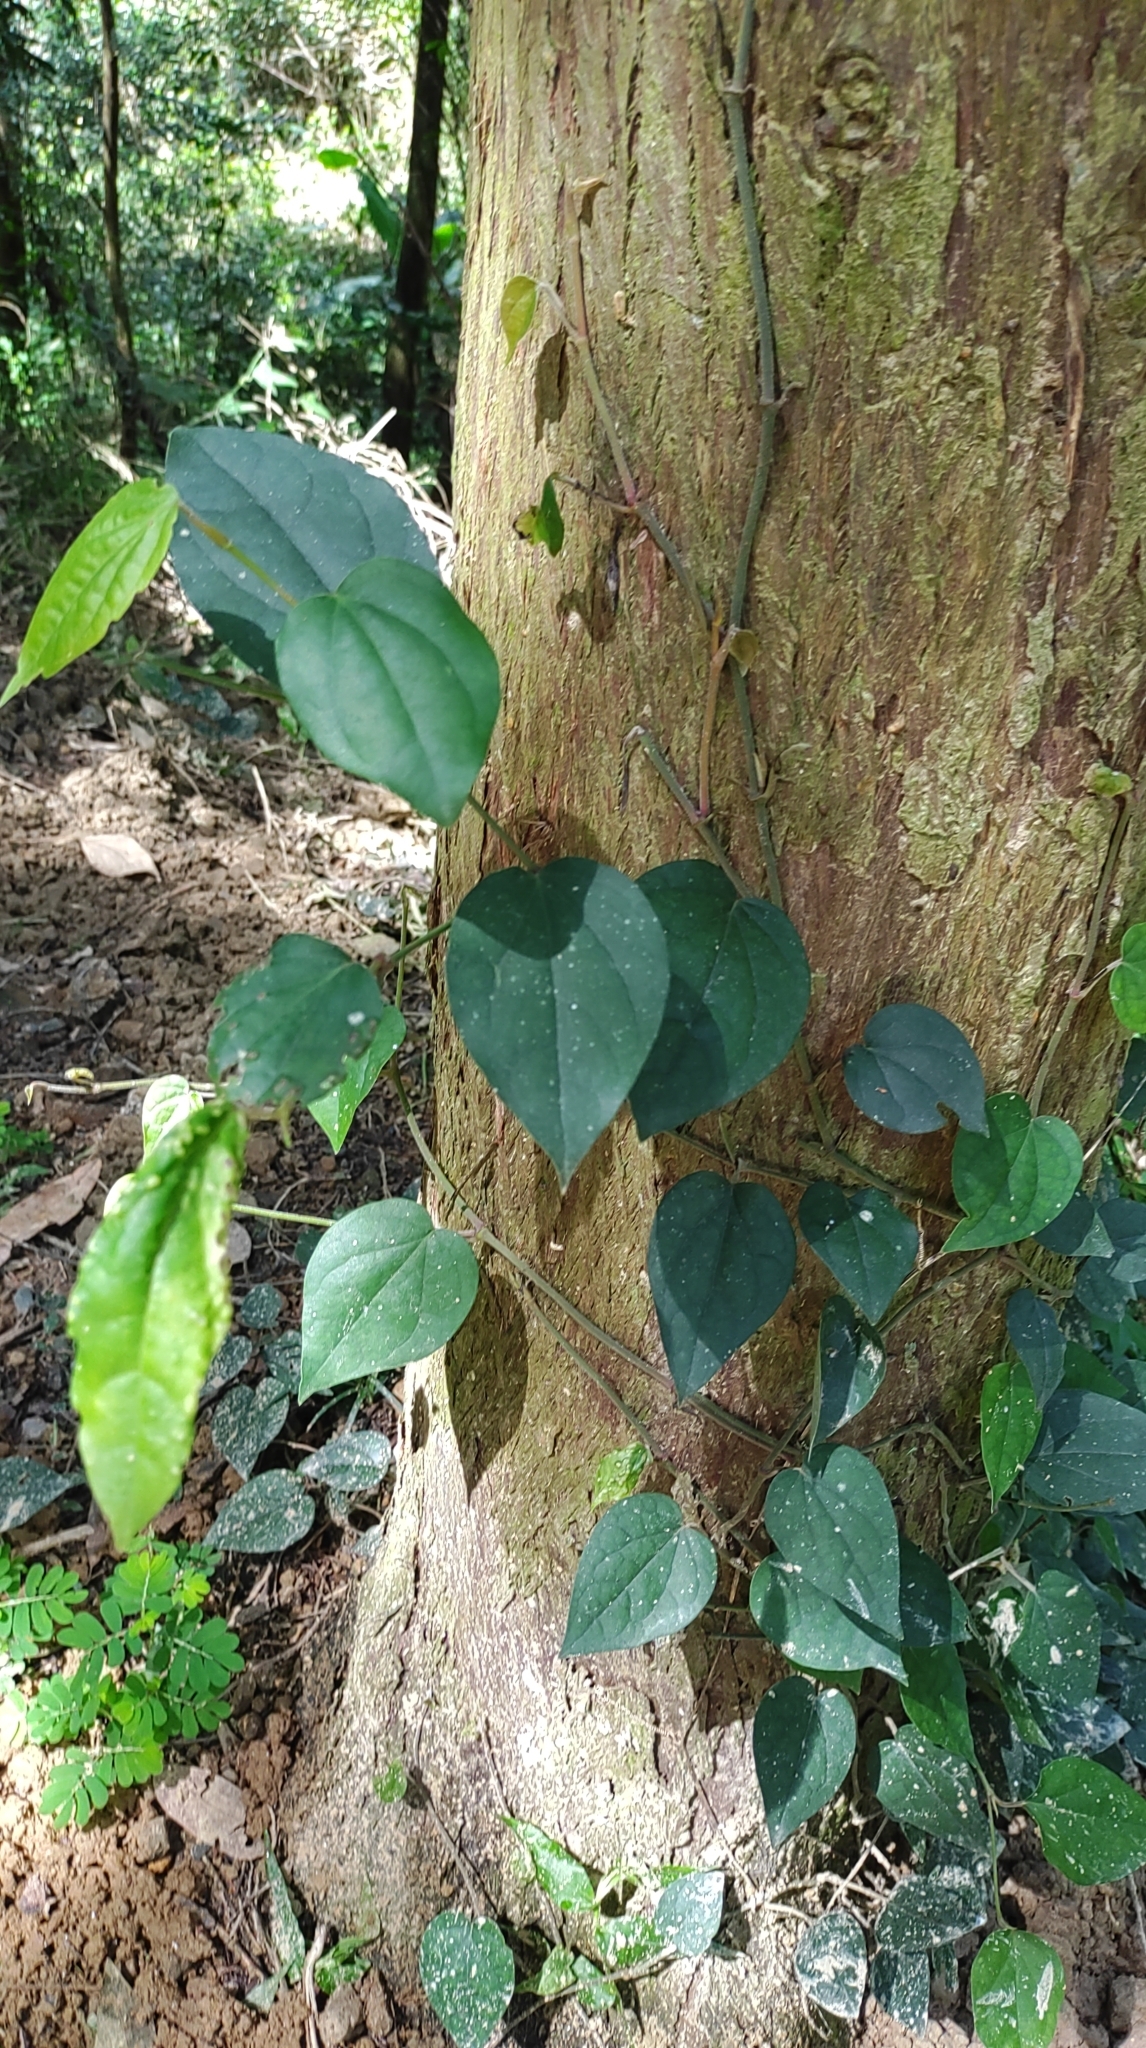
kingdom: Plantae
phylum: Tracheophyta
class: Magnoliopsida
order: Piperales
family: Piperaceae
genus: Piper
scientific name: Piper kadsura
